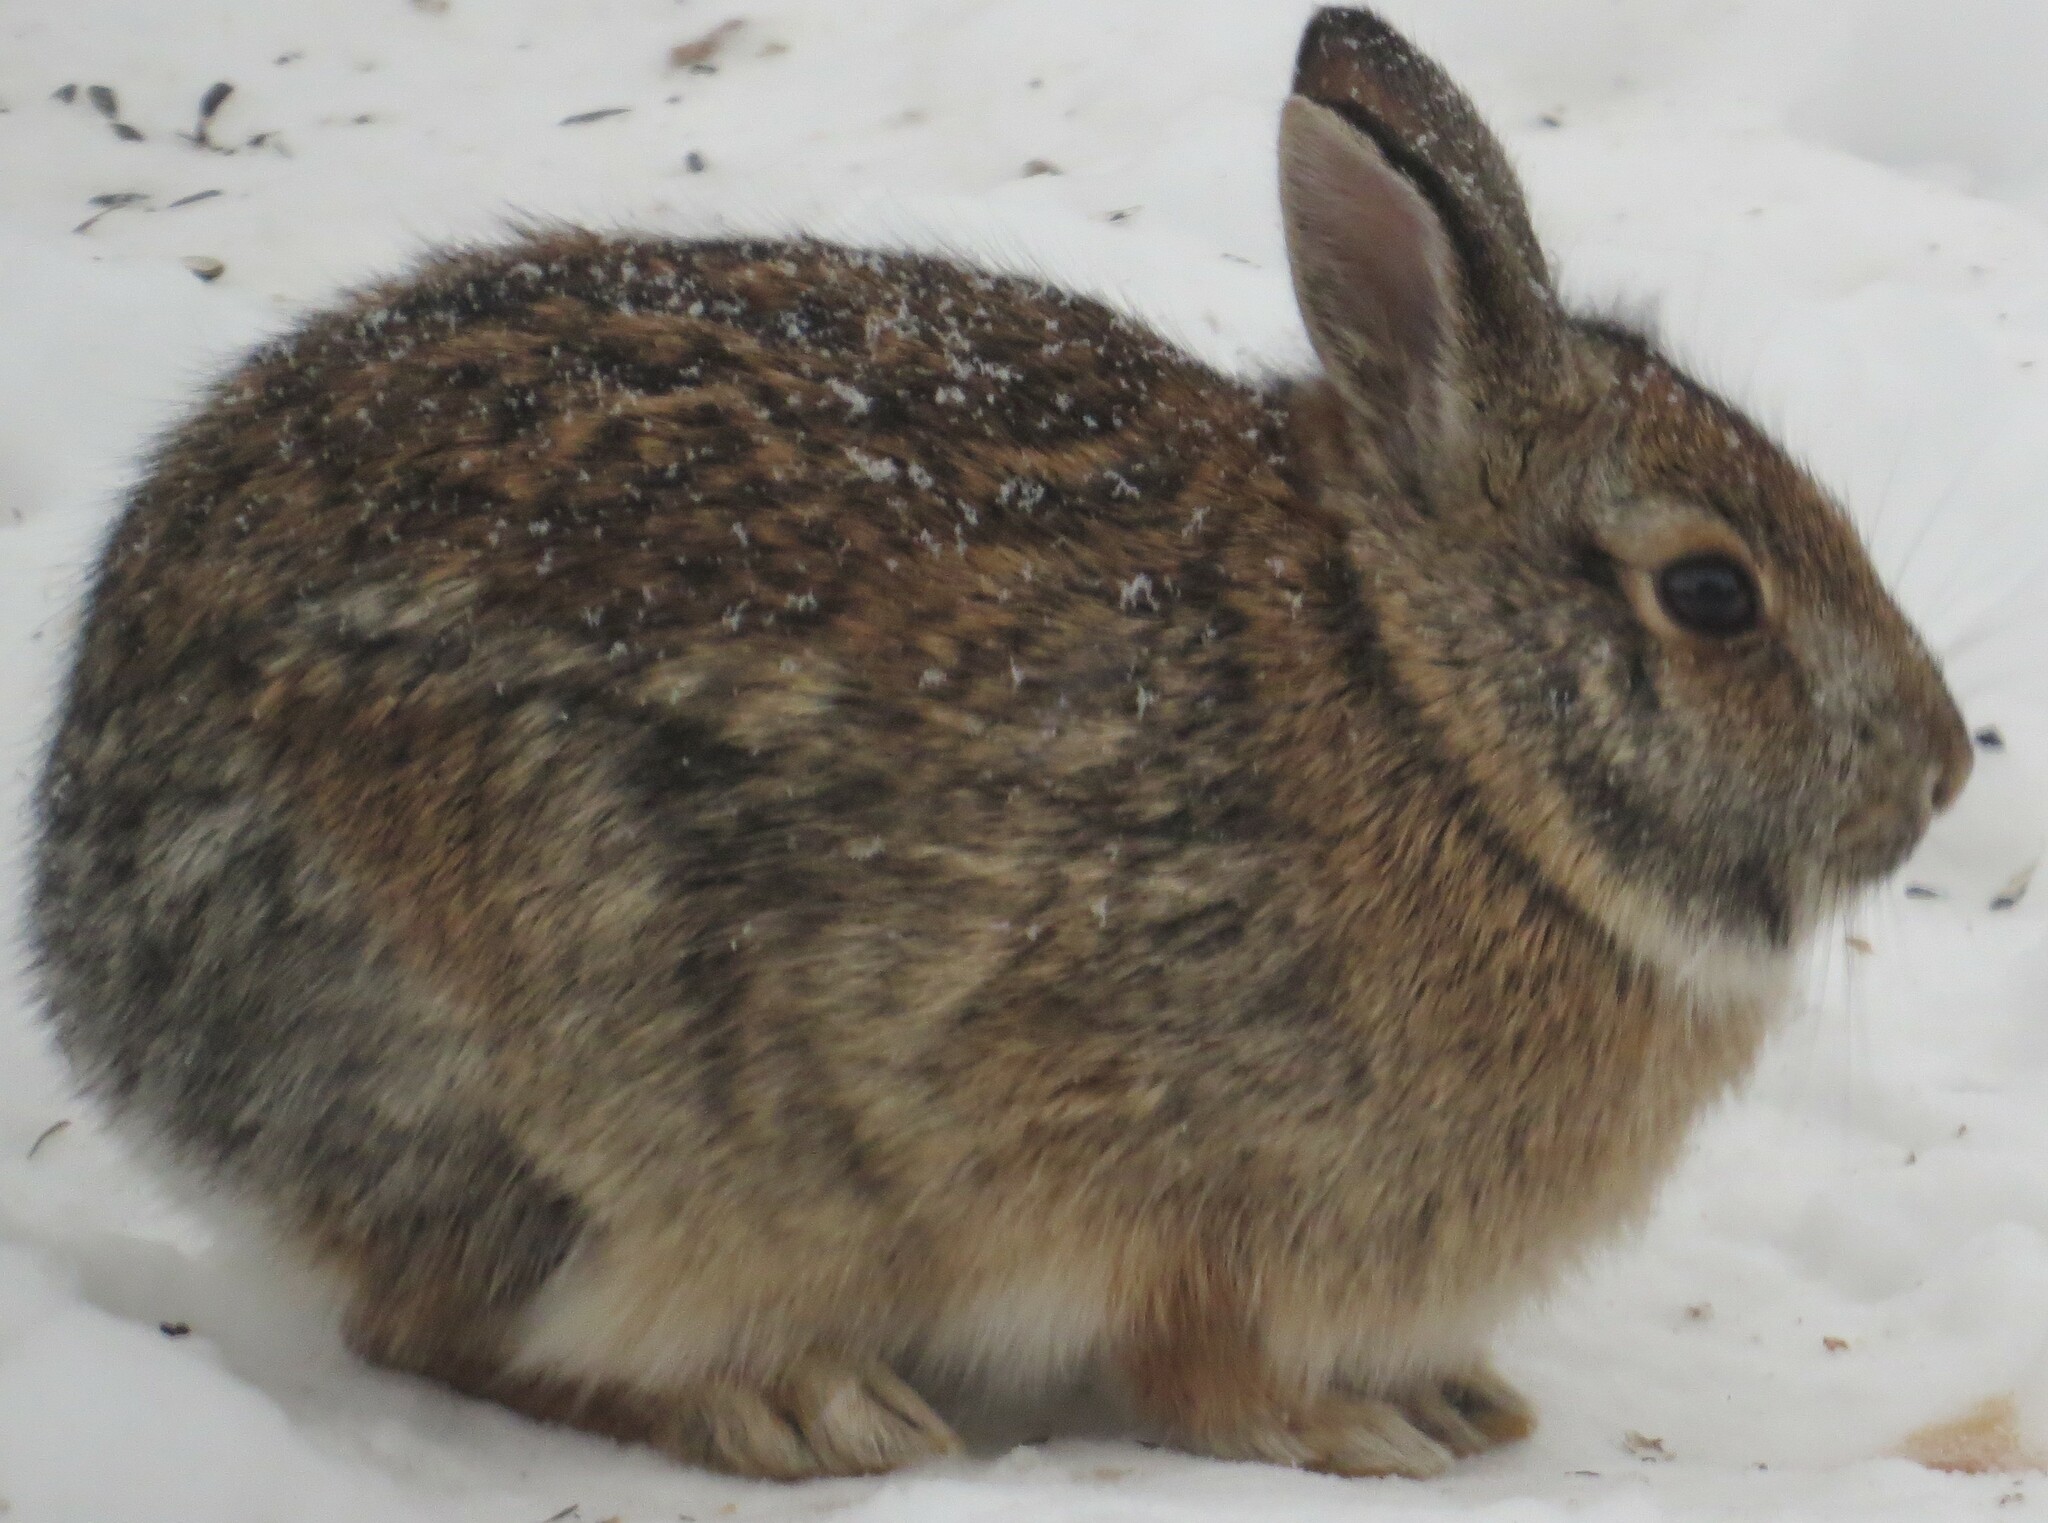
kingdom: Animalia
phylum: Chordata
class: Mammalia
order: Lagomorpha
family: Leporidae
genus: Sylvilagus
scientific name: Sylvilagus floridanus
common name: Eastern cottontail
